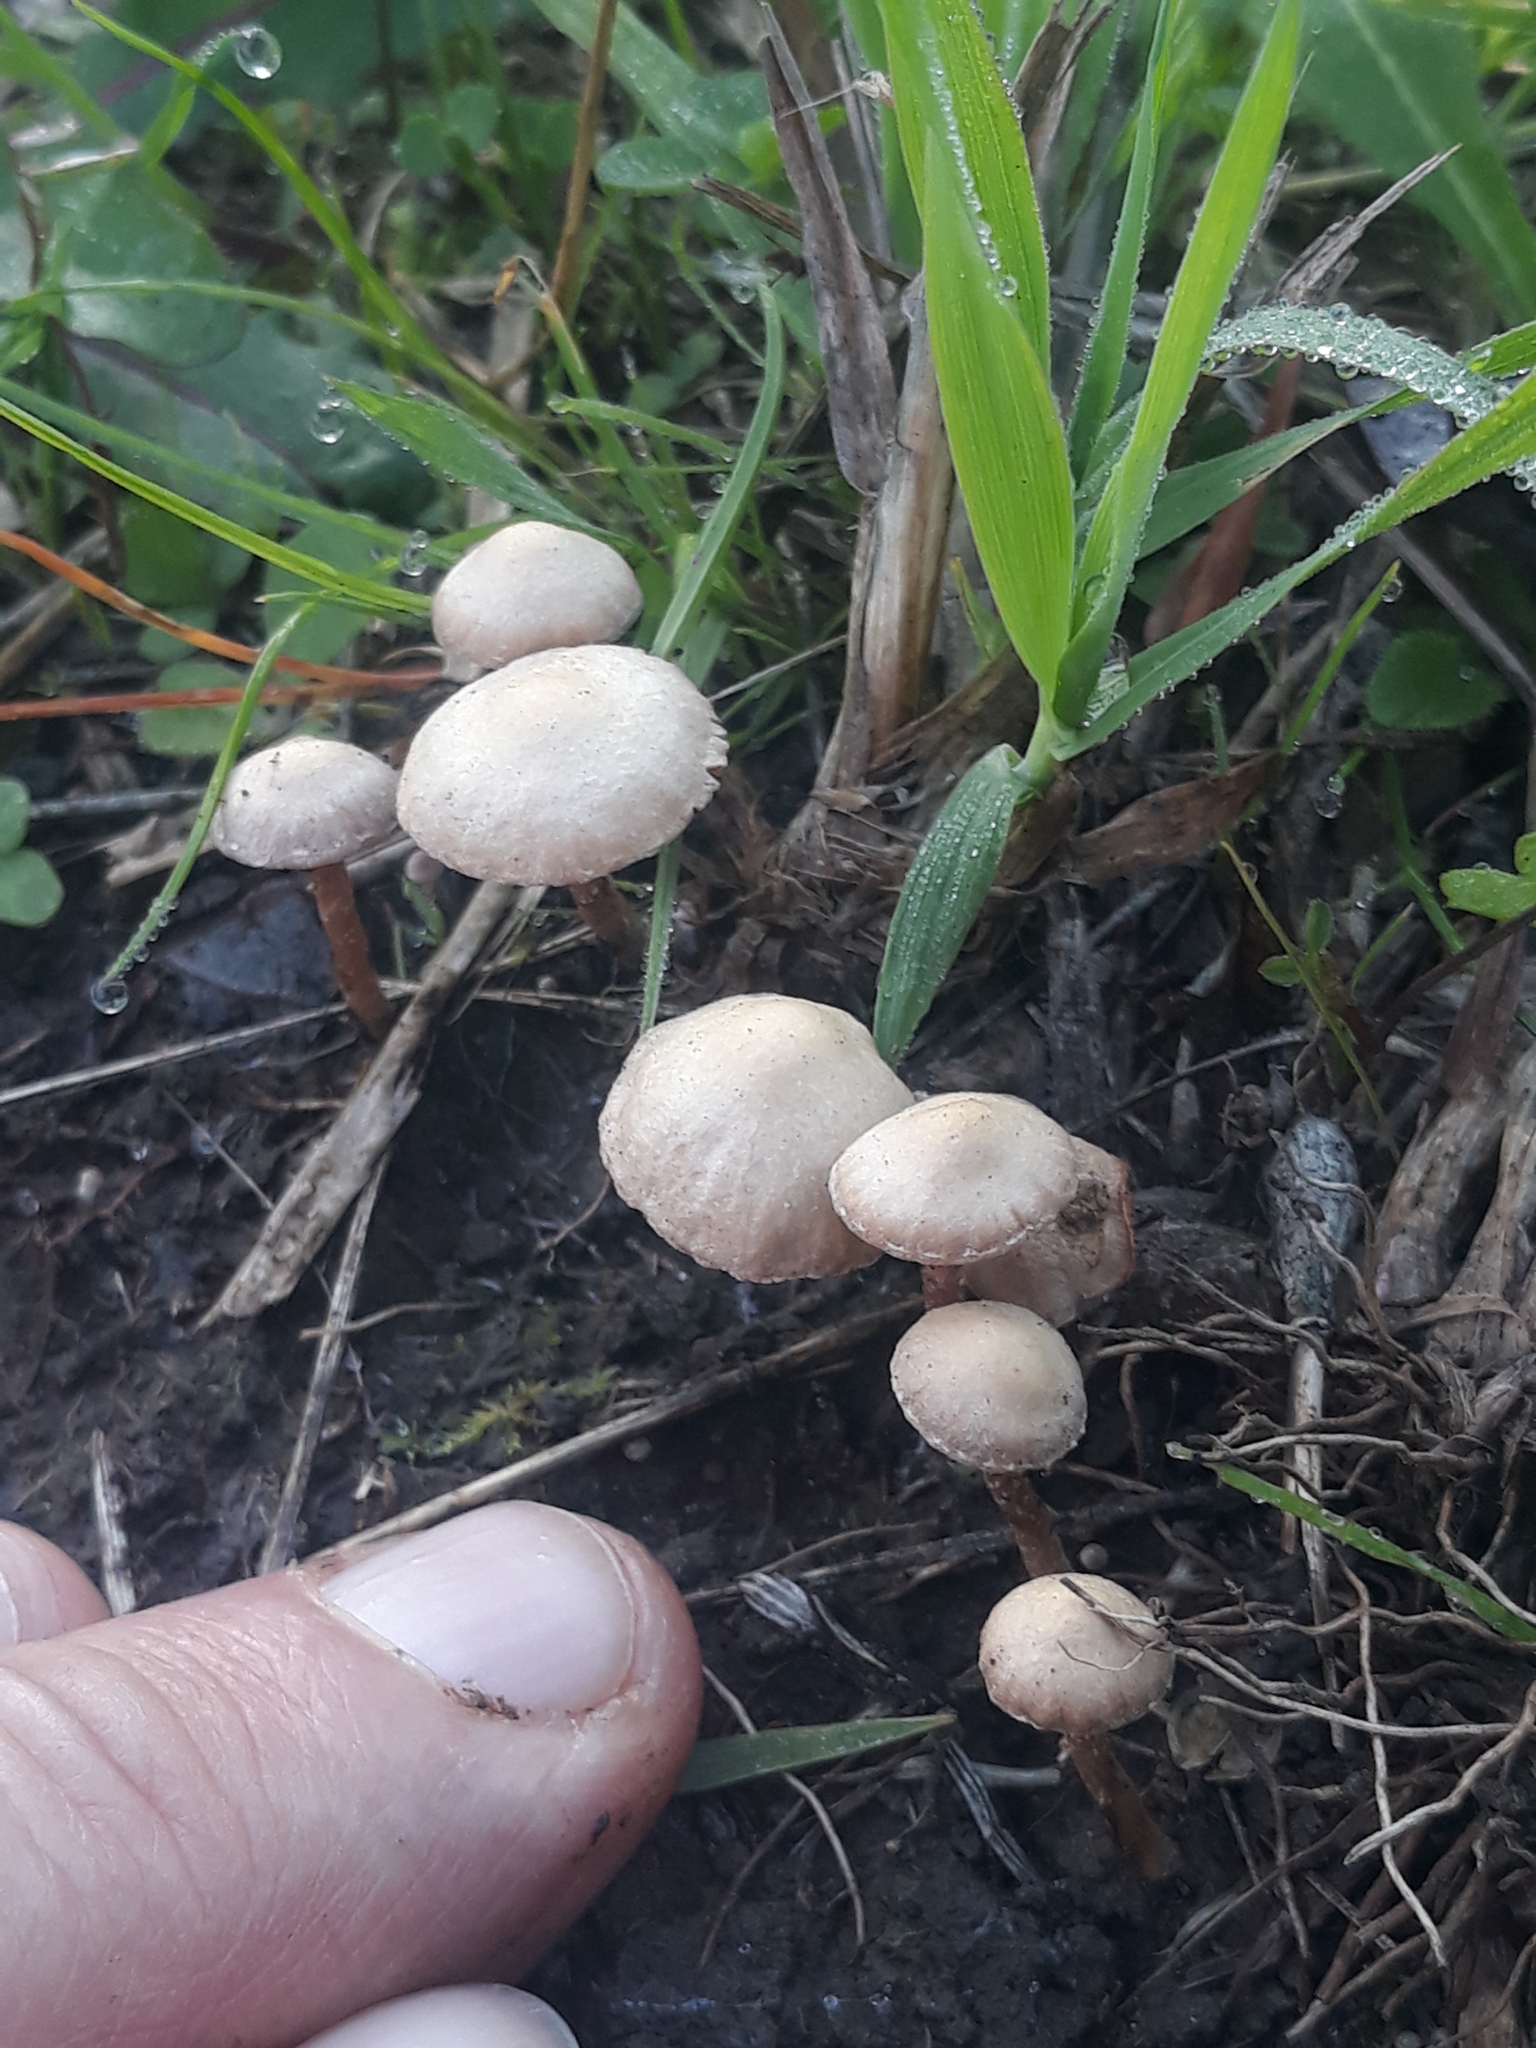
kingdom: Fungi
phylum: Basidiomycota
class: Agaricomycetes
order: Agaricales
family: Tubariaceae
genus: Tubaria
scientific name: Tubaria furfuracea
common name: Scurfy twiglet
